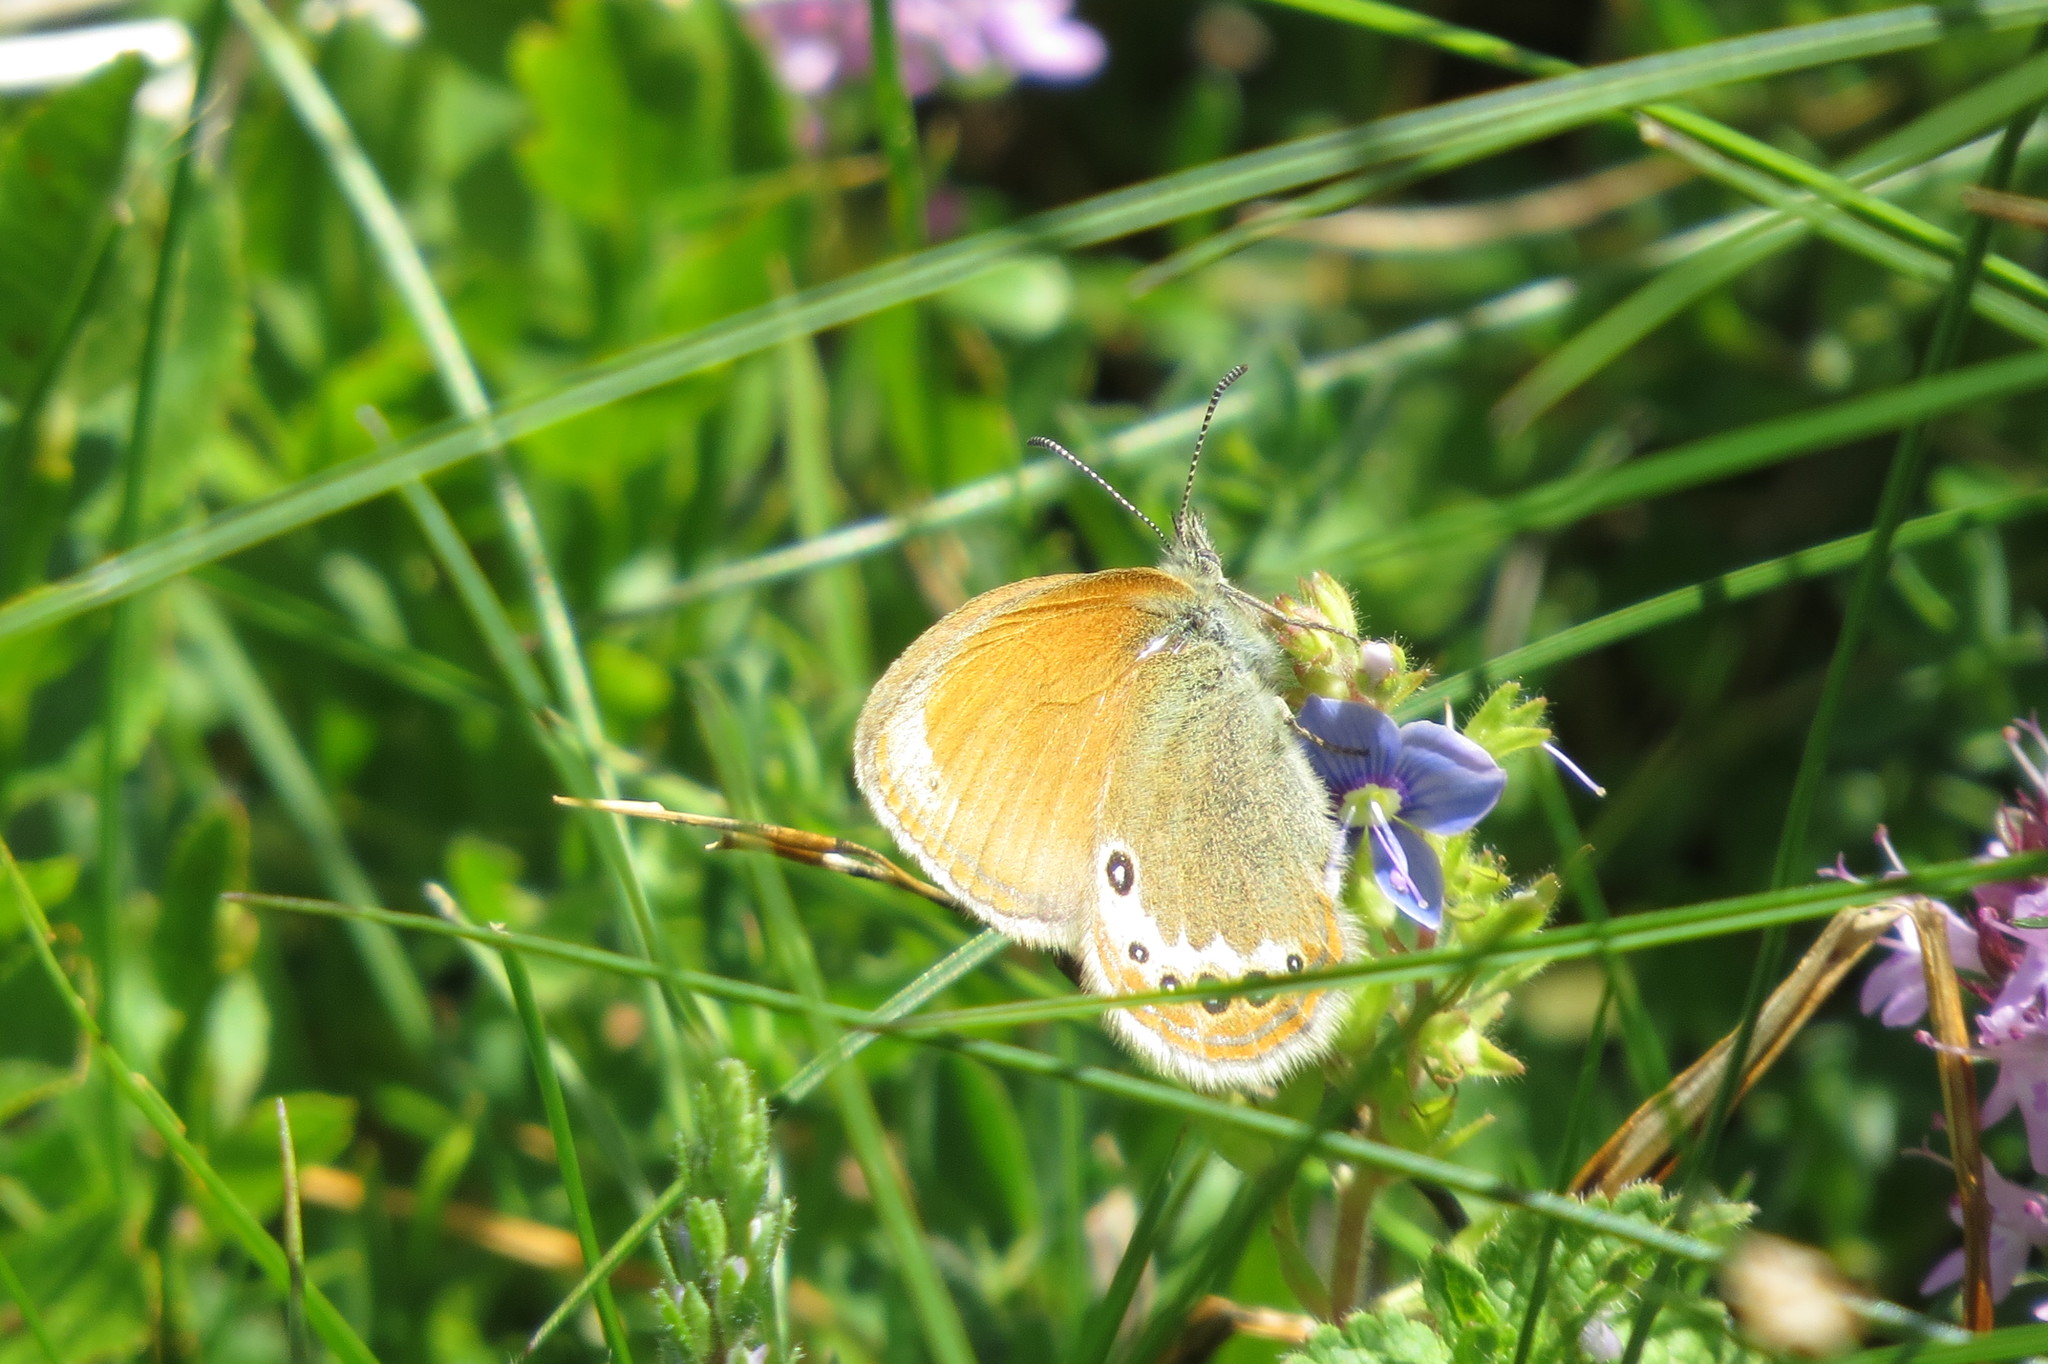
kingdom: Animalia
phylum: Arthropoda
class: Insecta
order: Lepidoptera
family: Nymphalidae
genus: Coenonympha
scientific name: Coenonympha
